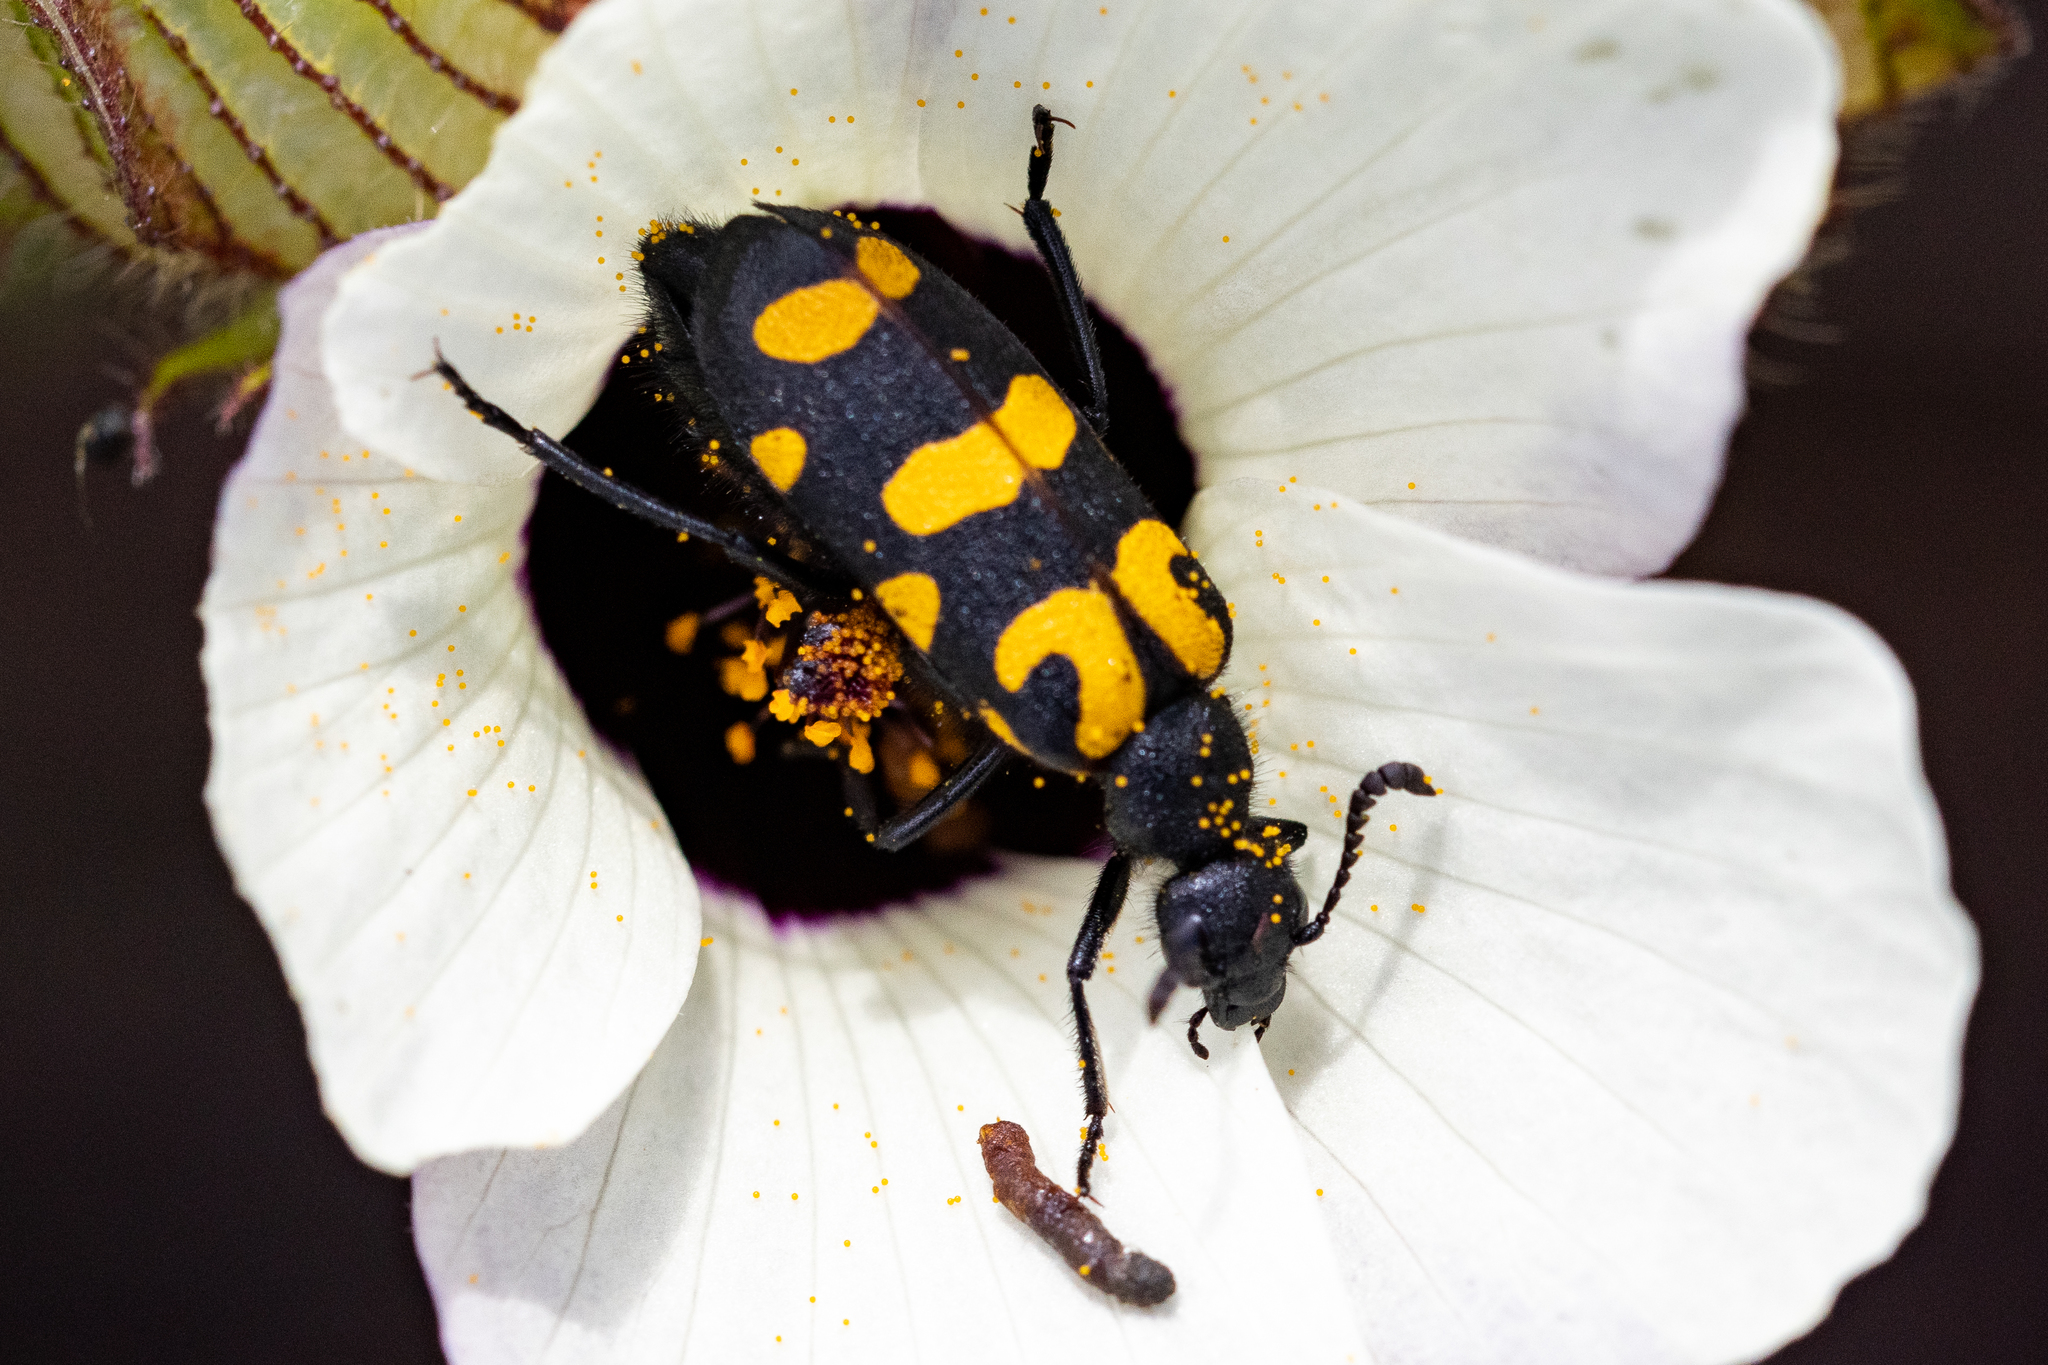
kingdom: Animalia
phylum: Arthropoda
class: Insecta
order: Coleoptera
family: Meloidae
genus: Ceroctis
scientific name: Ceroctis capensis
